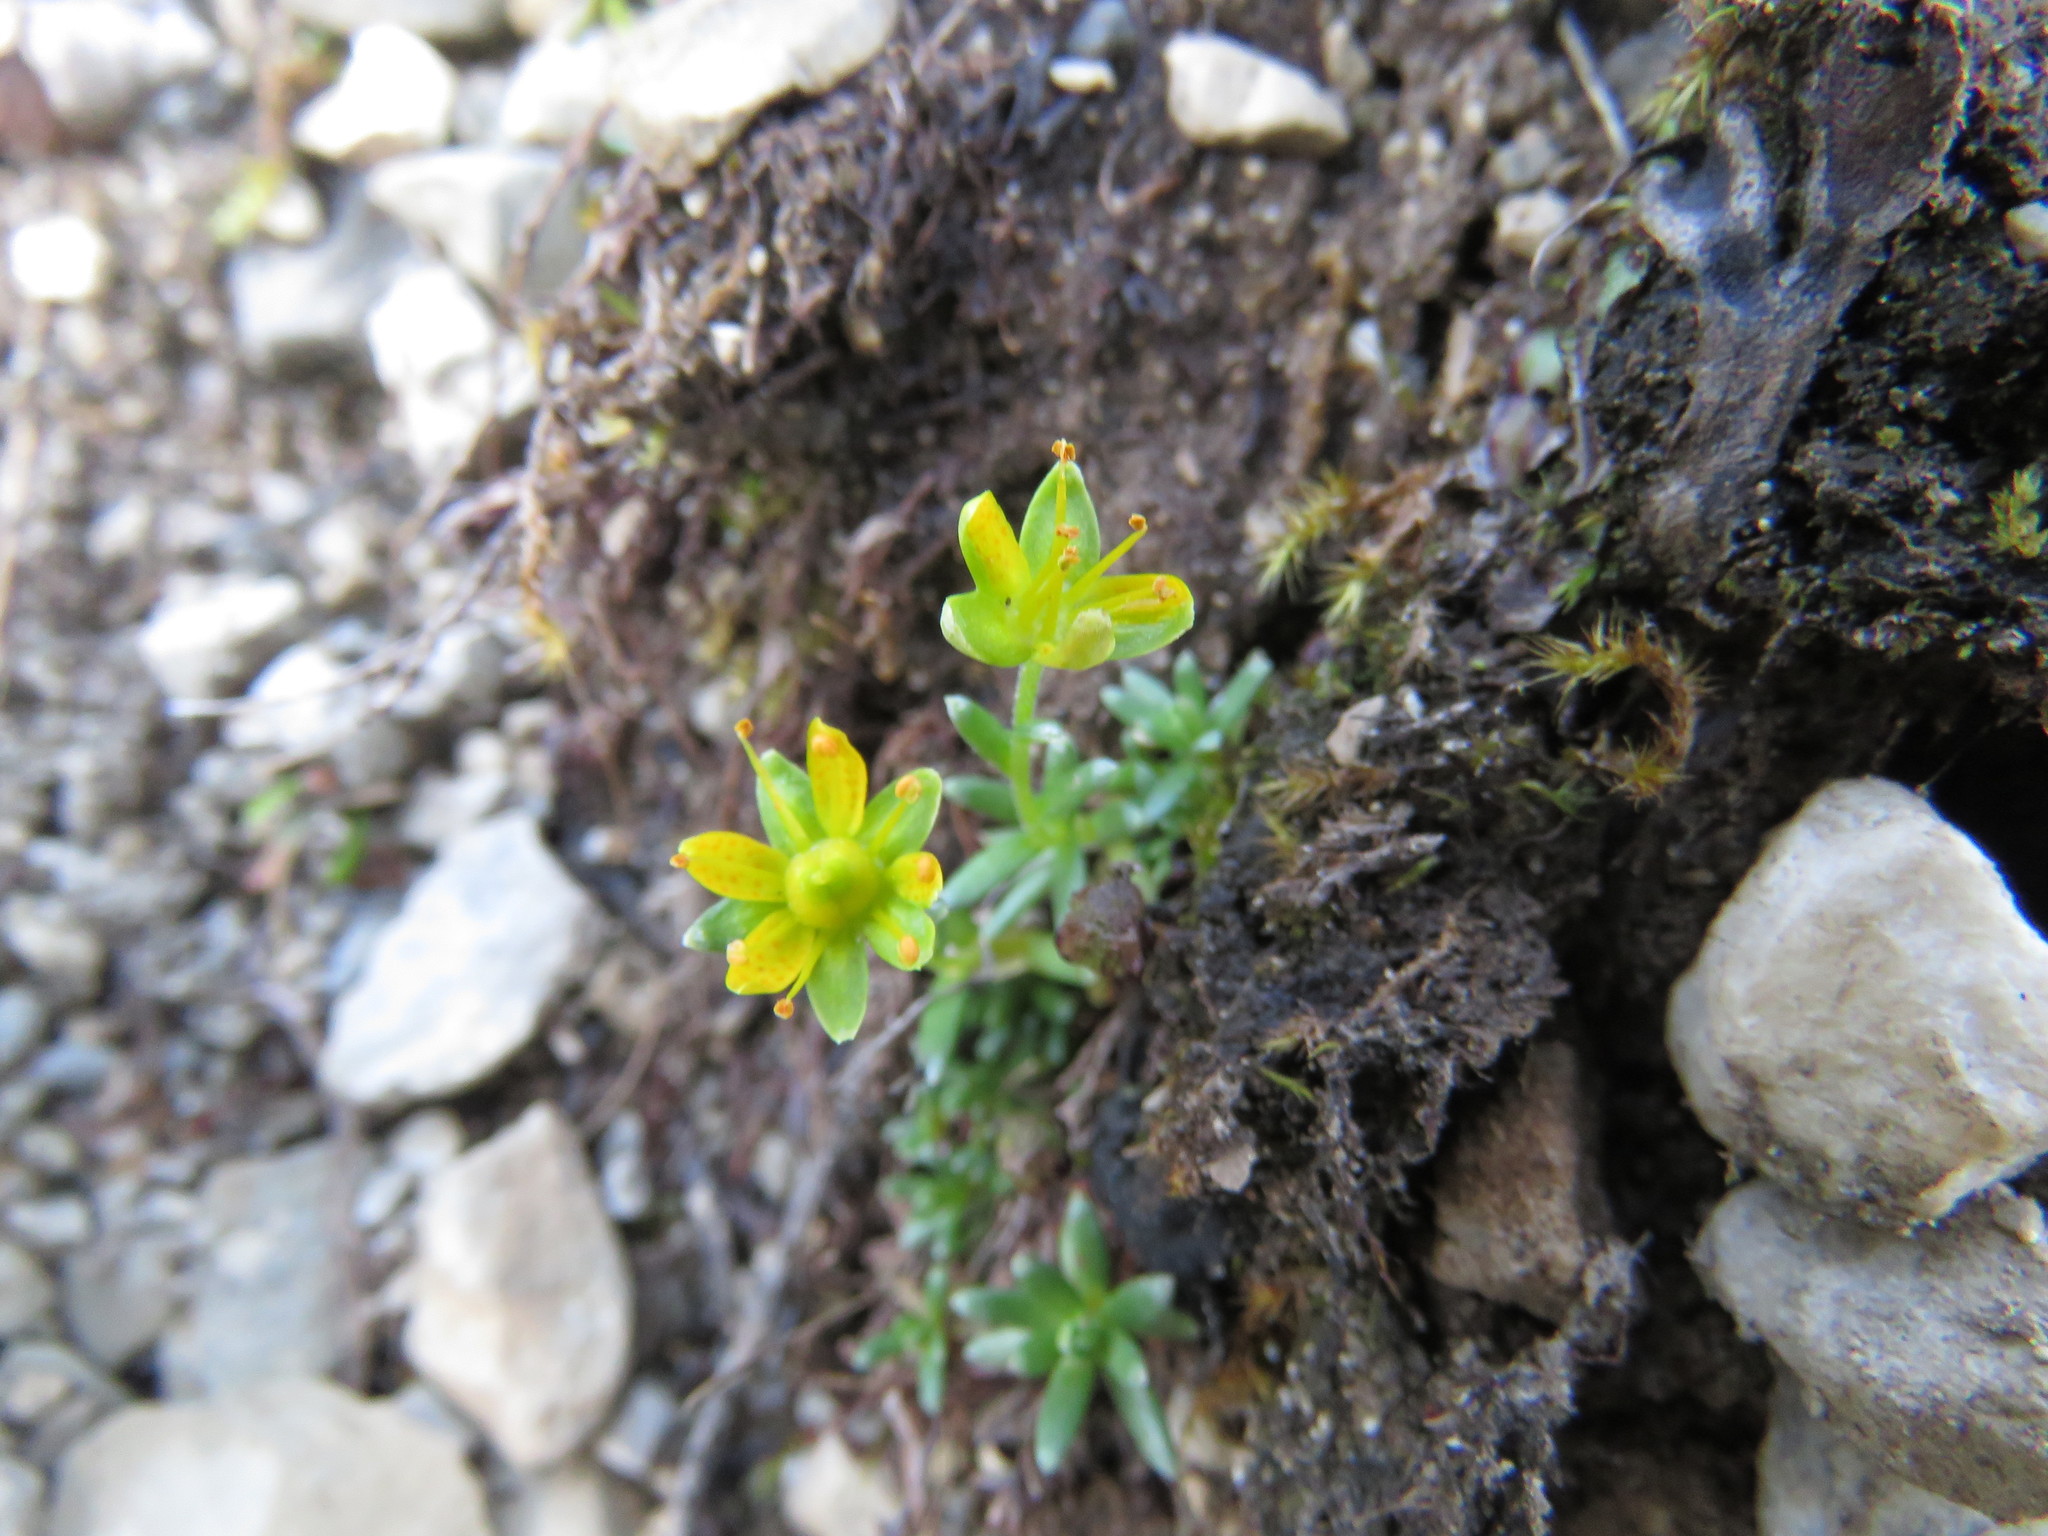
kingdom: Plantae
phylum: Tracheophyta
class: Magnoliopsida
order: Saxifragales
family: Saxifragaceae
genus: Saxifraga
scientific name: Saxifraga aizoides
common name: Yellow mountain saxifrage
